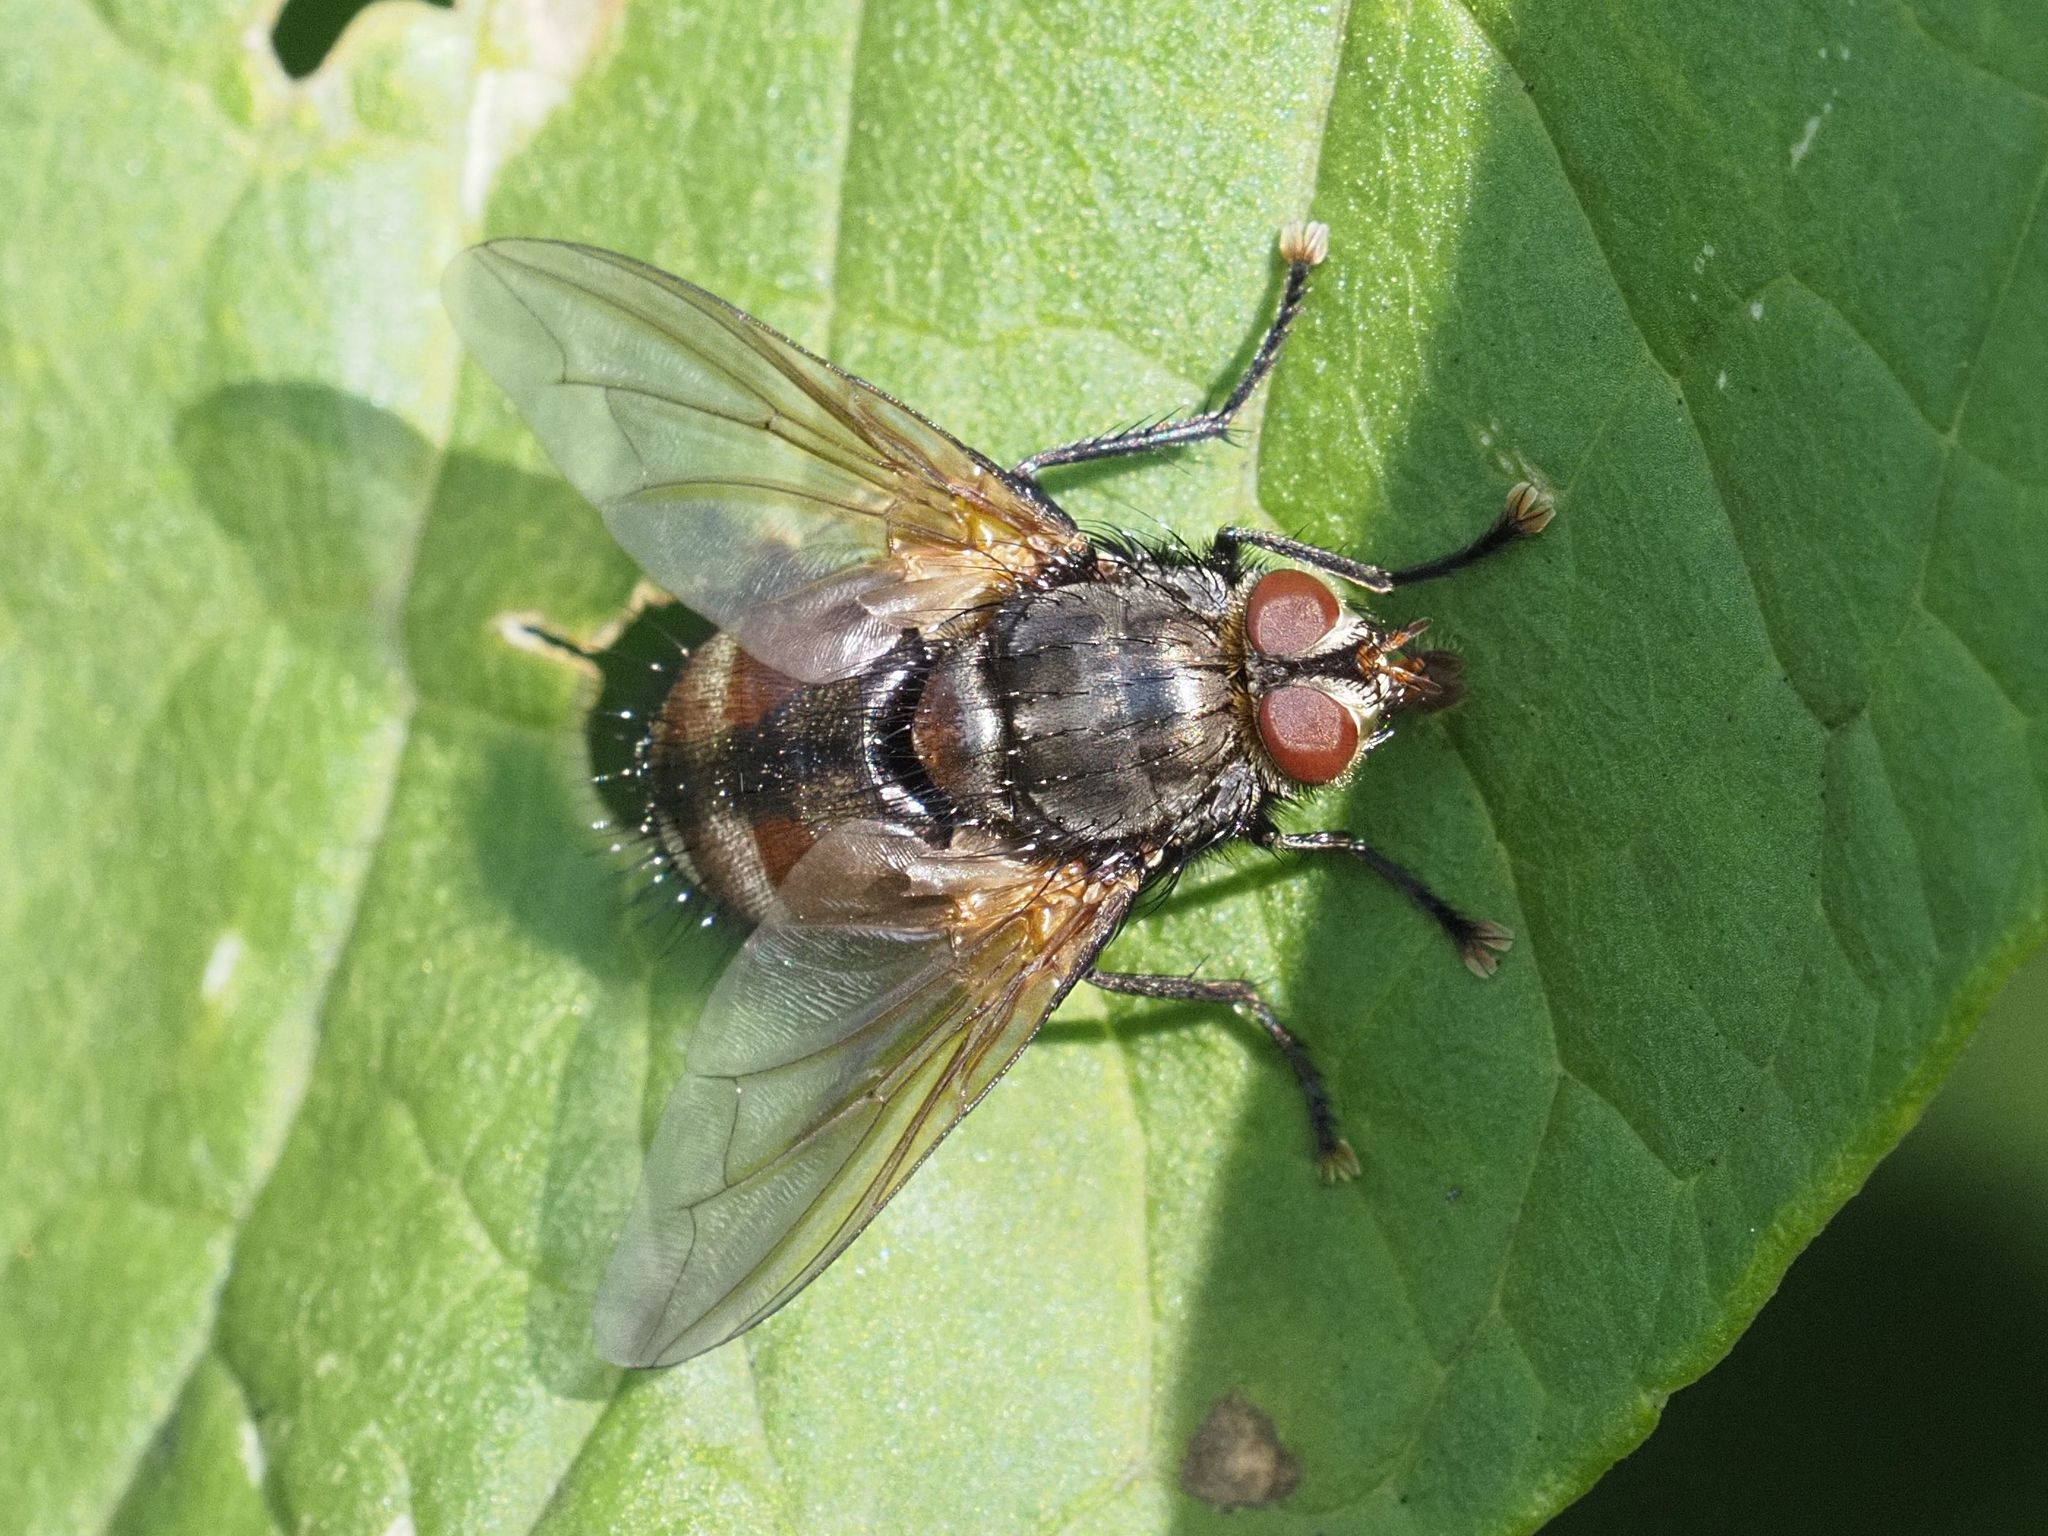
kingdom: Animalia
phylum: Arthropoda
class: Insecta
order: Diptera
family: Tachinidae
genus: Nemoraea
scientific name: Nemoraea pellucida
